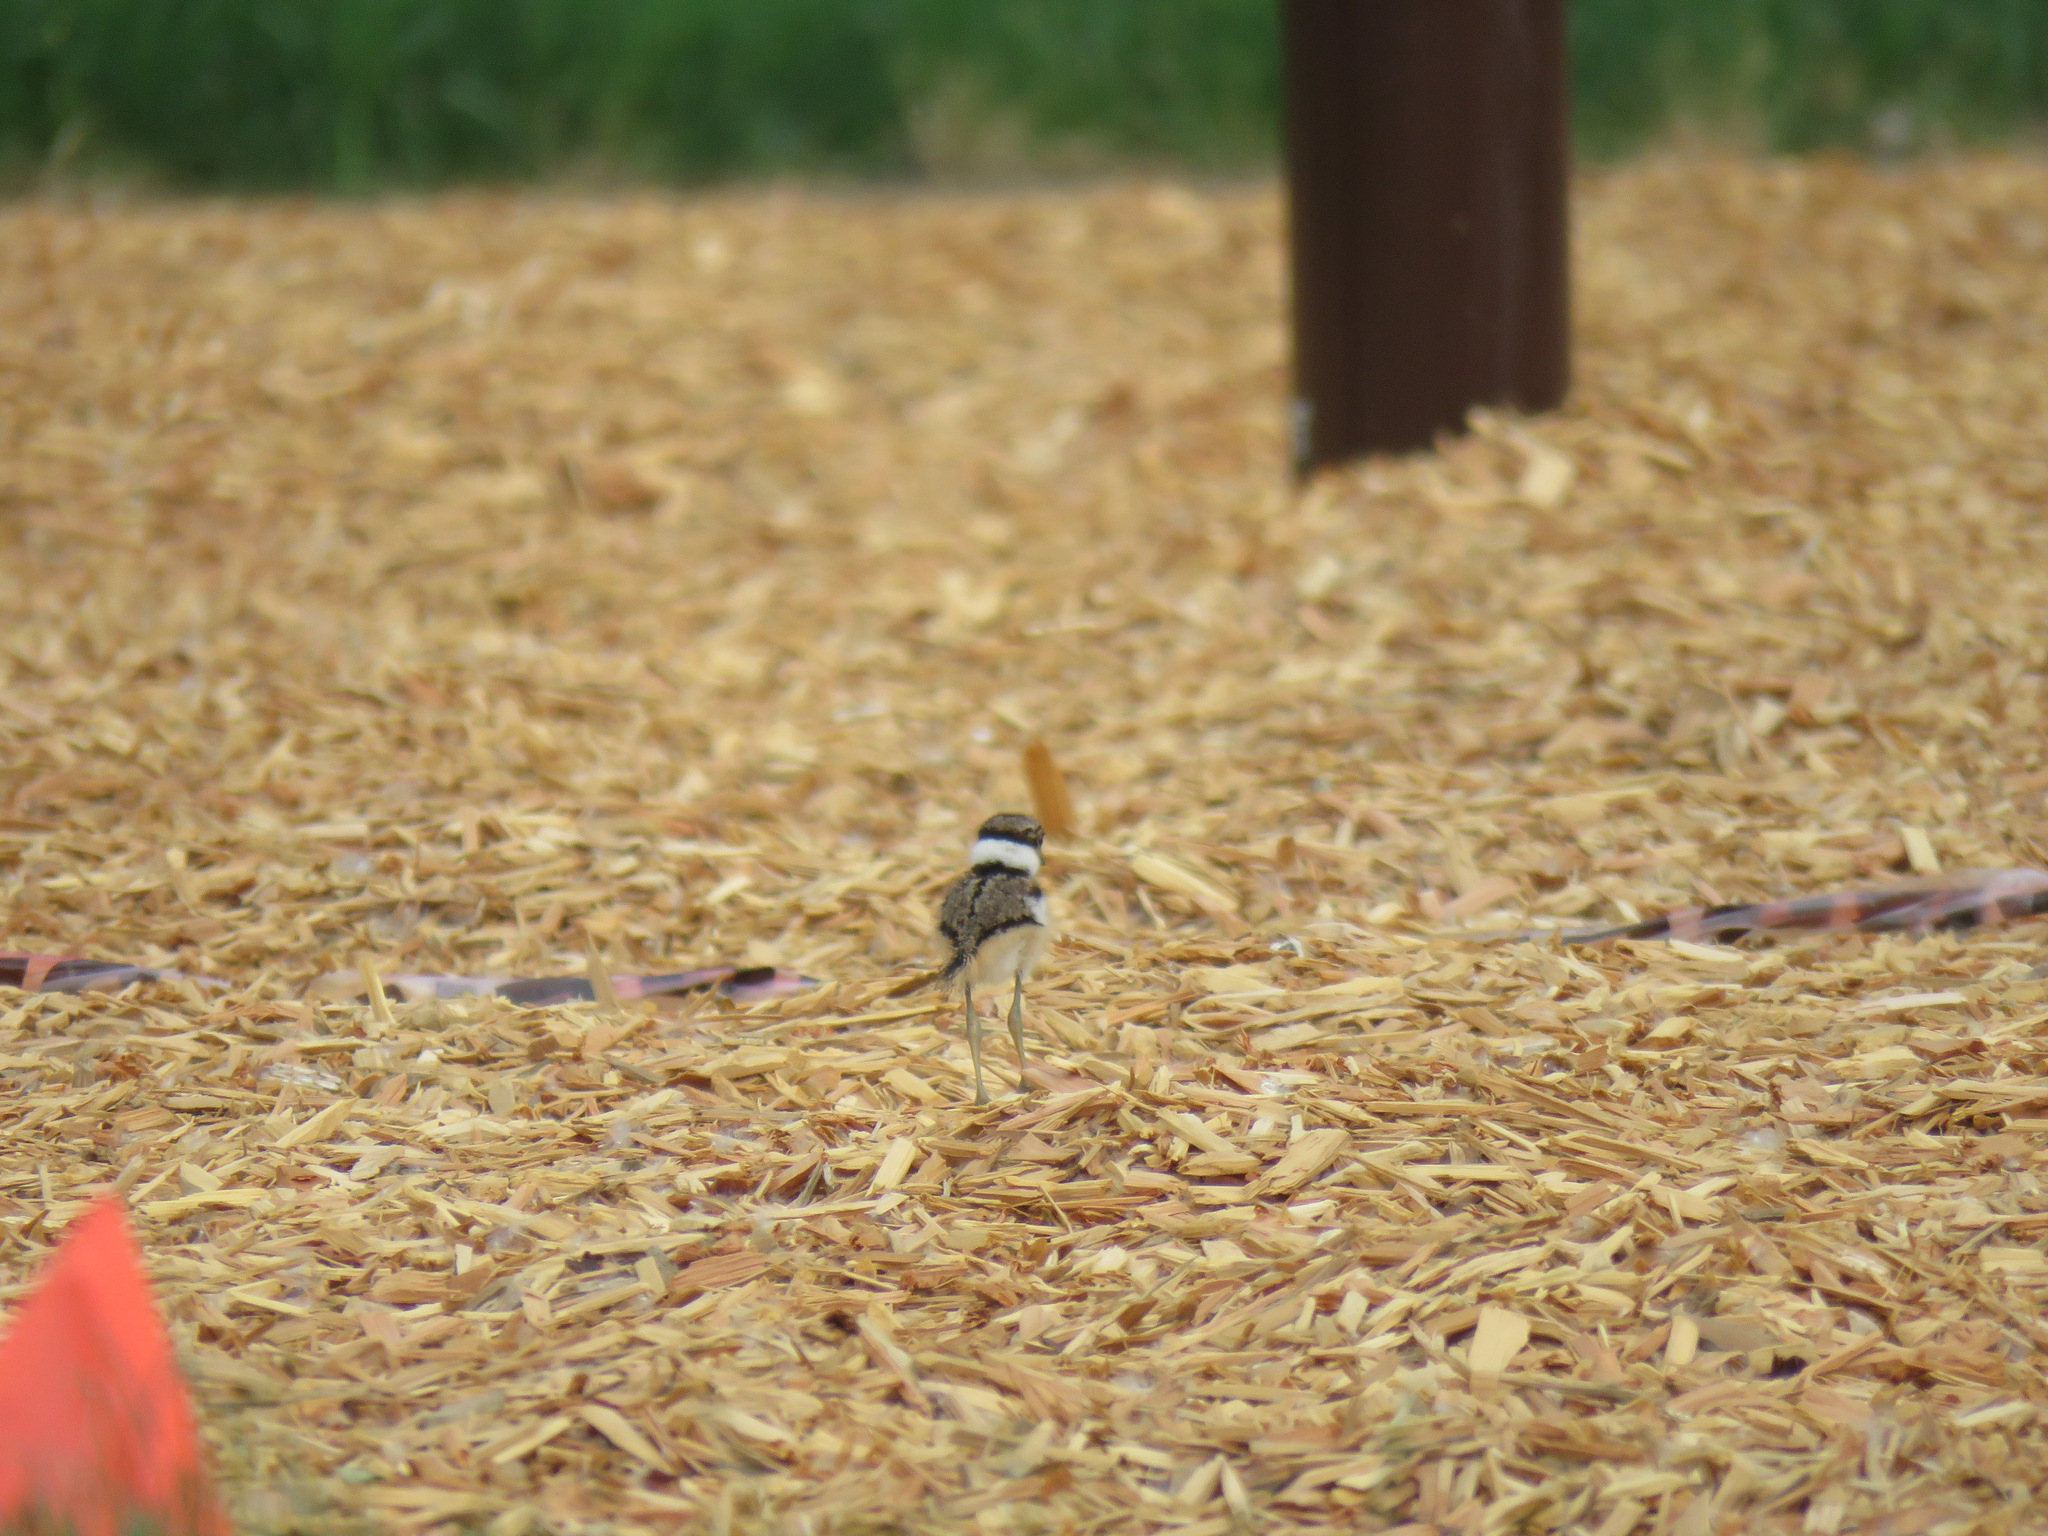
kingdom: Animalia
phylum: Chordata
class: Aves
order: Charadriiformes
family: Charadriidae
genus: Charadrius
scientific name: Charadrius vociferus
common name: Killdeer
